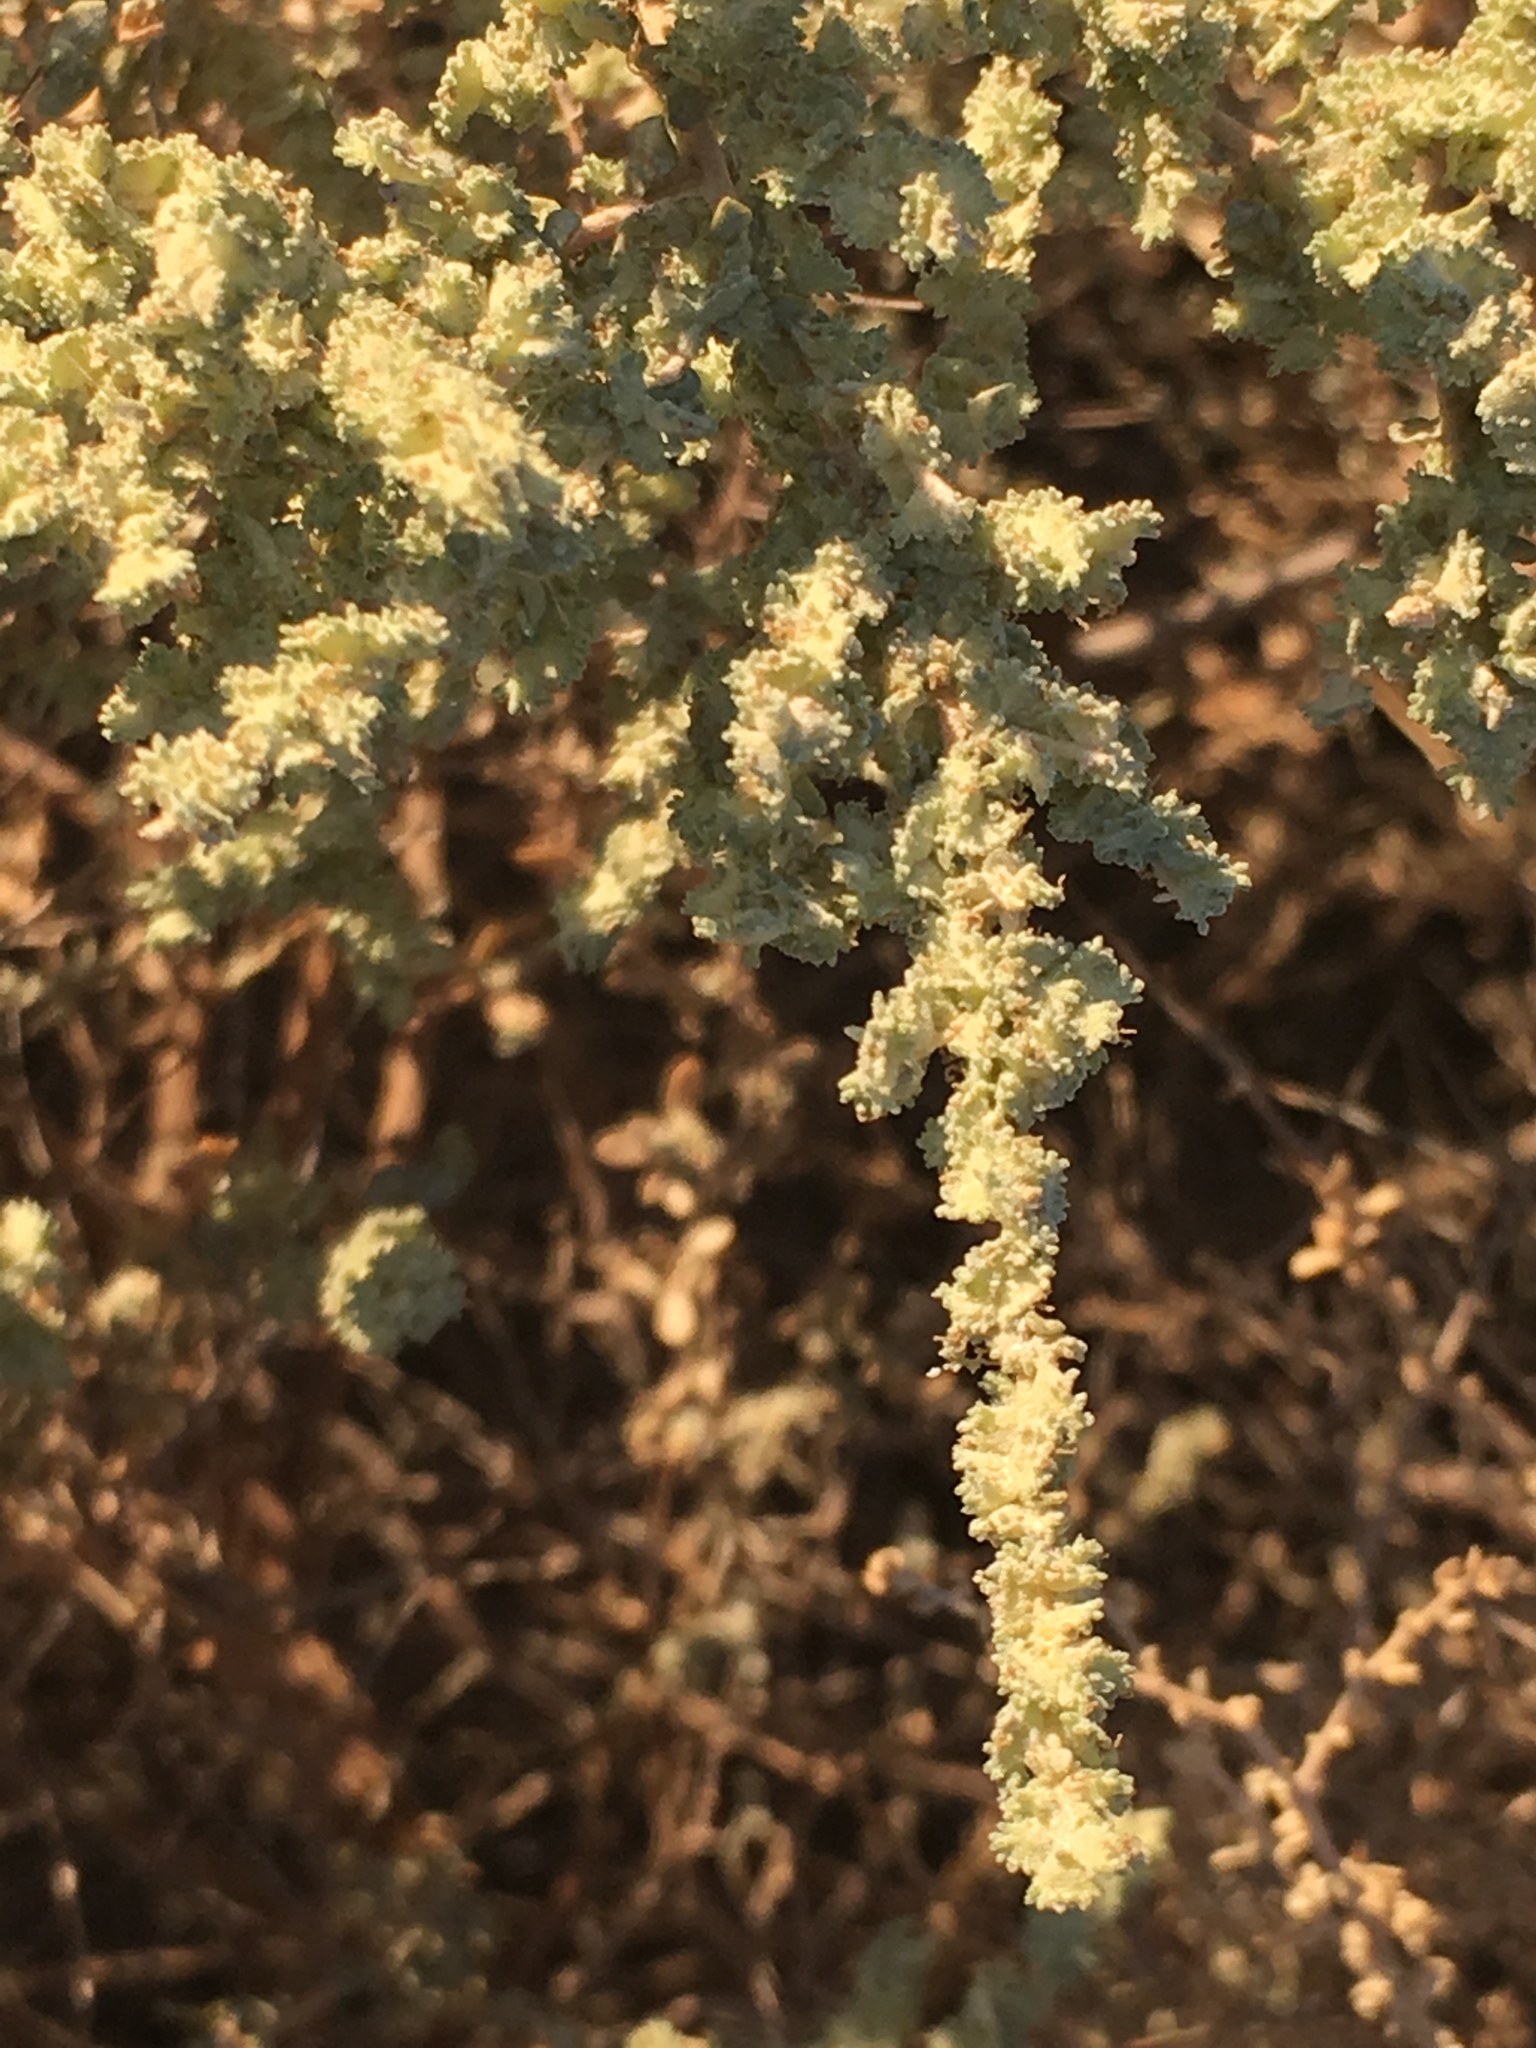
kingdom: Plantae
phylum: Tracheophyta
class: Magnoliopsida
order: Caryophyllales
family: Amaranthaceae
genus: Atriplex
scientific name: Atriplex polycarpa
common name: Desert saltbush
